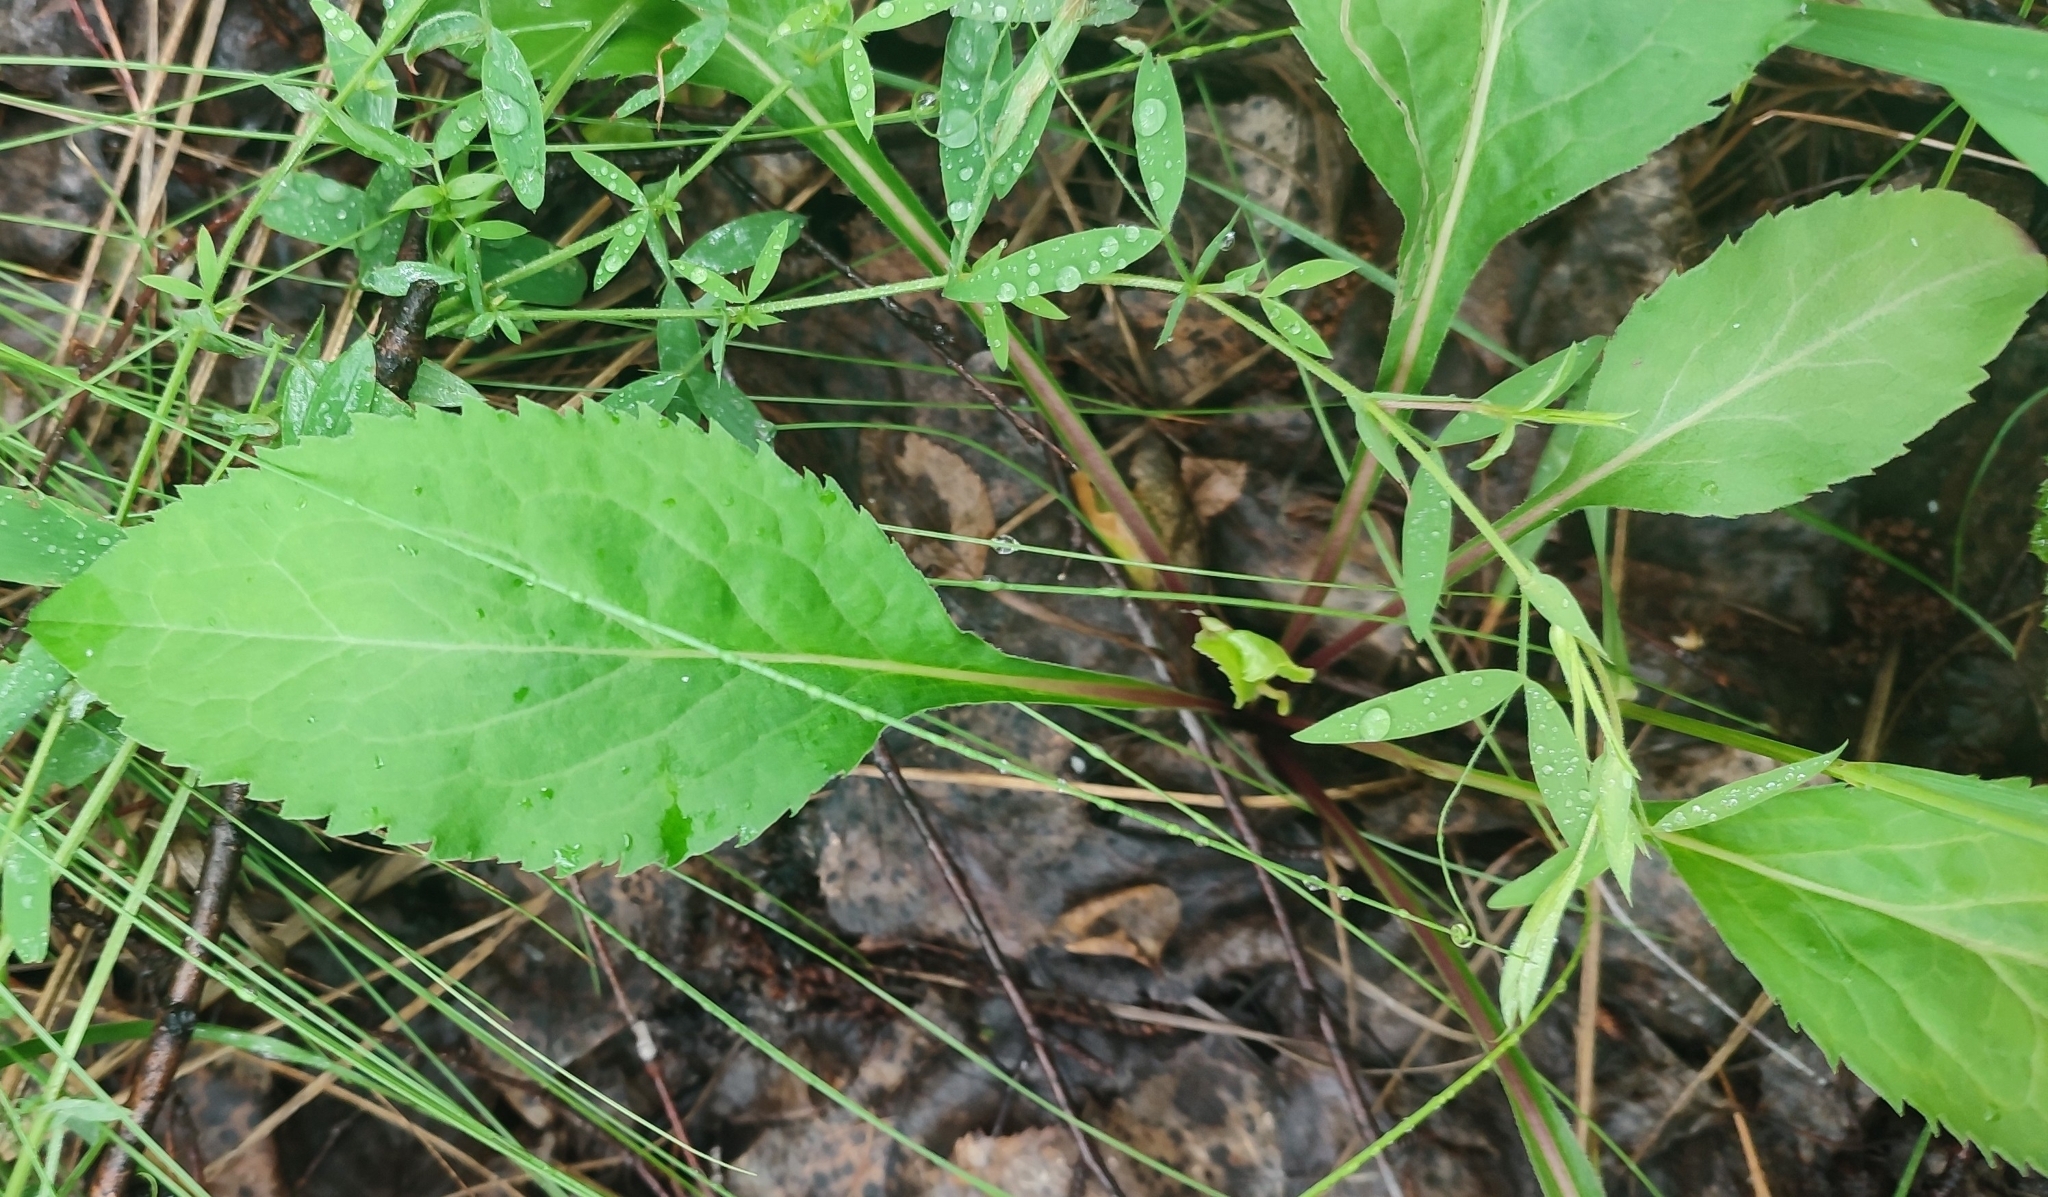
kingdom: Plantae
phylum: Tracheophyta
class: Magnoliopsida
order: Asterales
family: Asteraceae
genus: Solidago
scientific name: Solidago virgaurea
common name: Goldenrod
